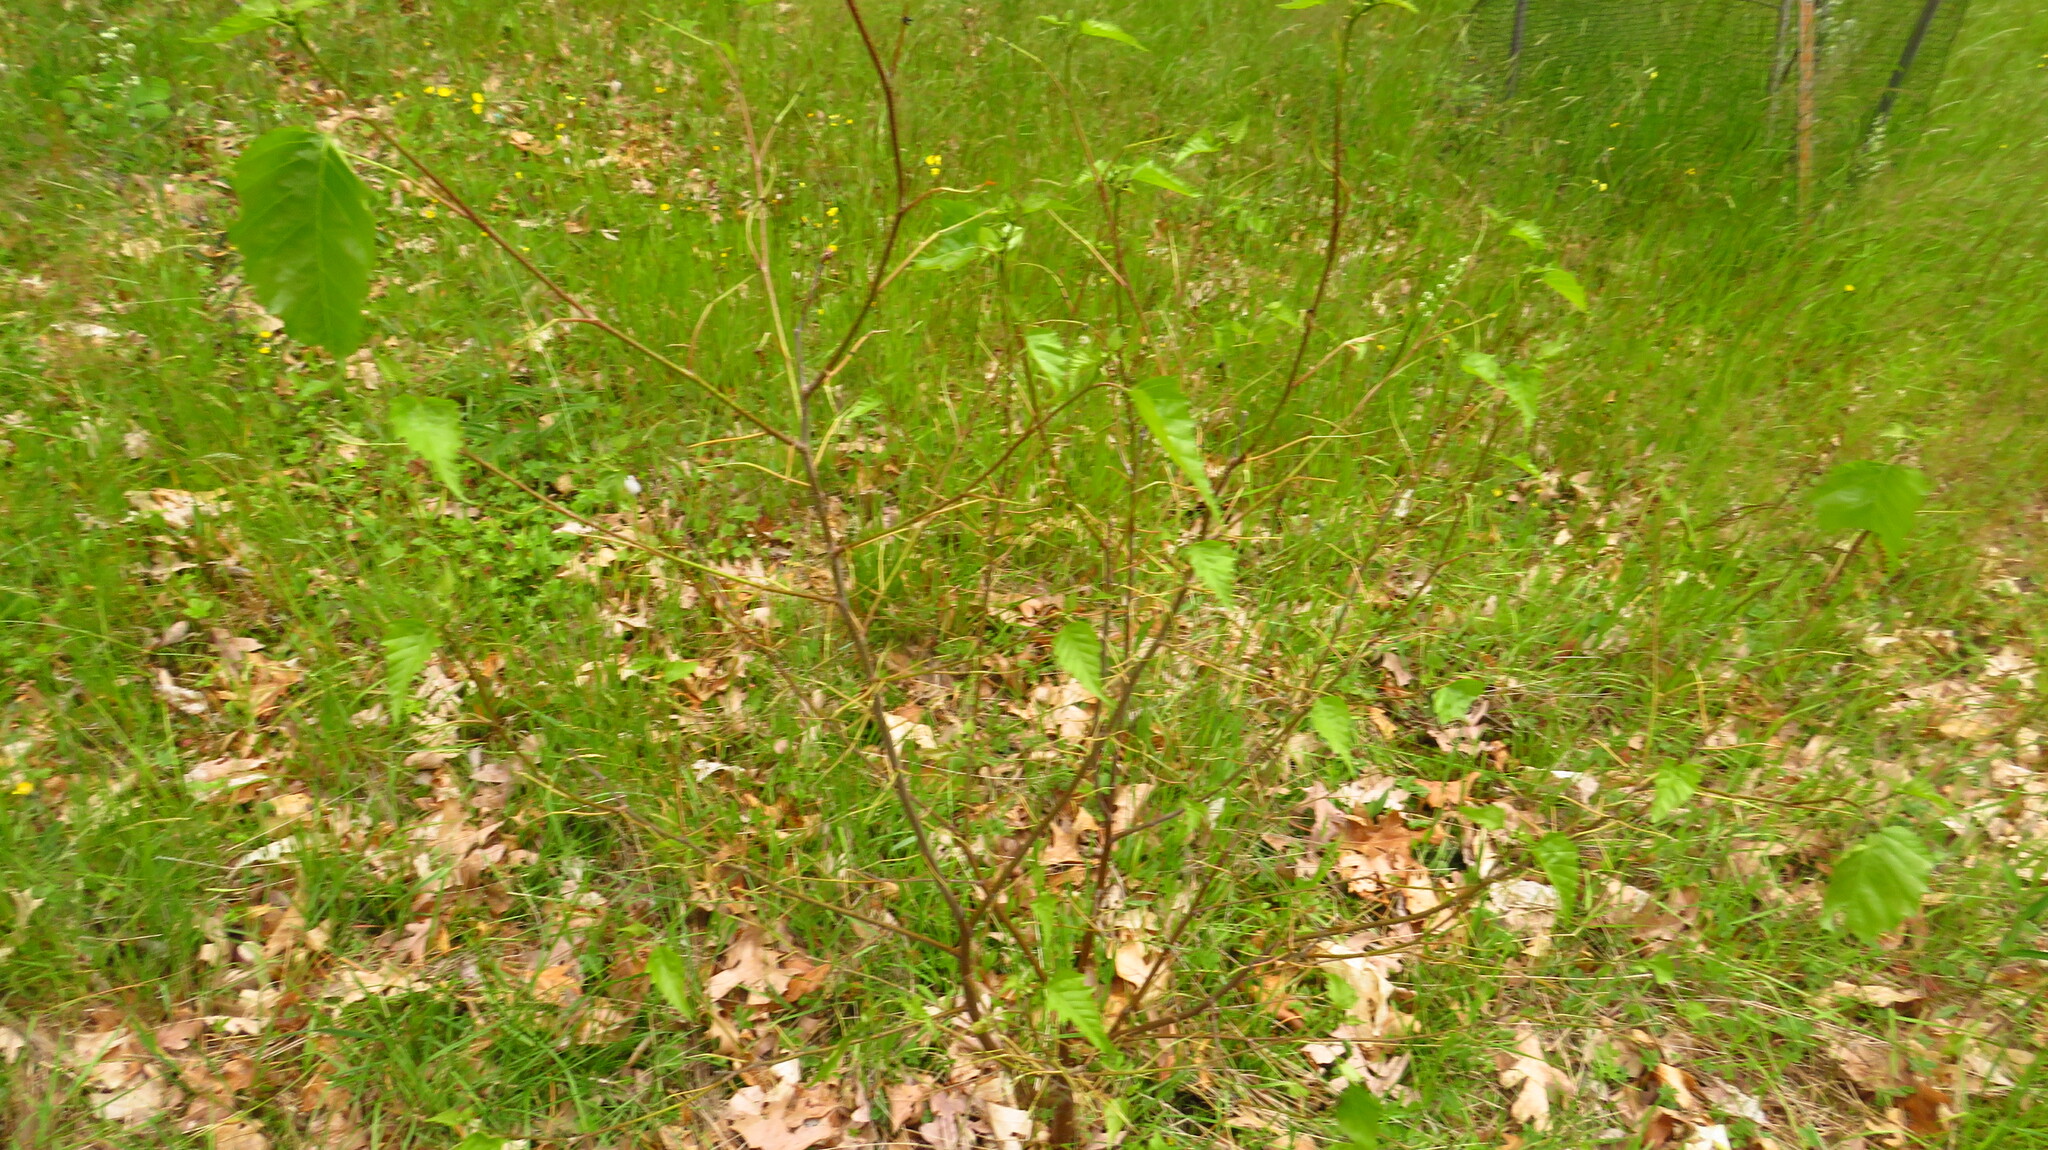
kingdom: Plantae
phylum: Tracheophyta
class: Magnoliopsida
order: Fagales
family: Betulaceae
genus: Betula
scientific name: Betula populifolia
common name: Fire birch
